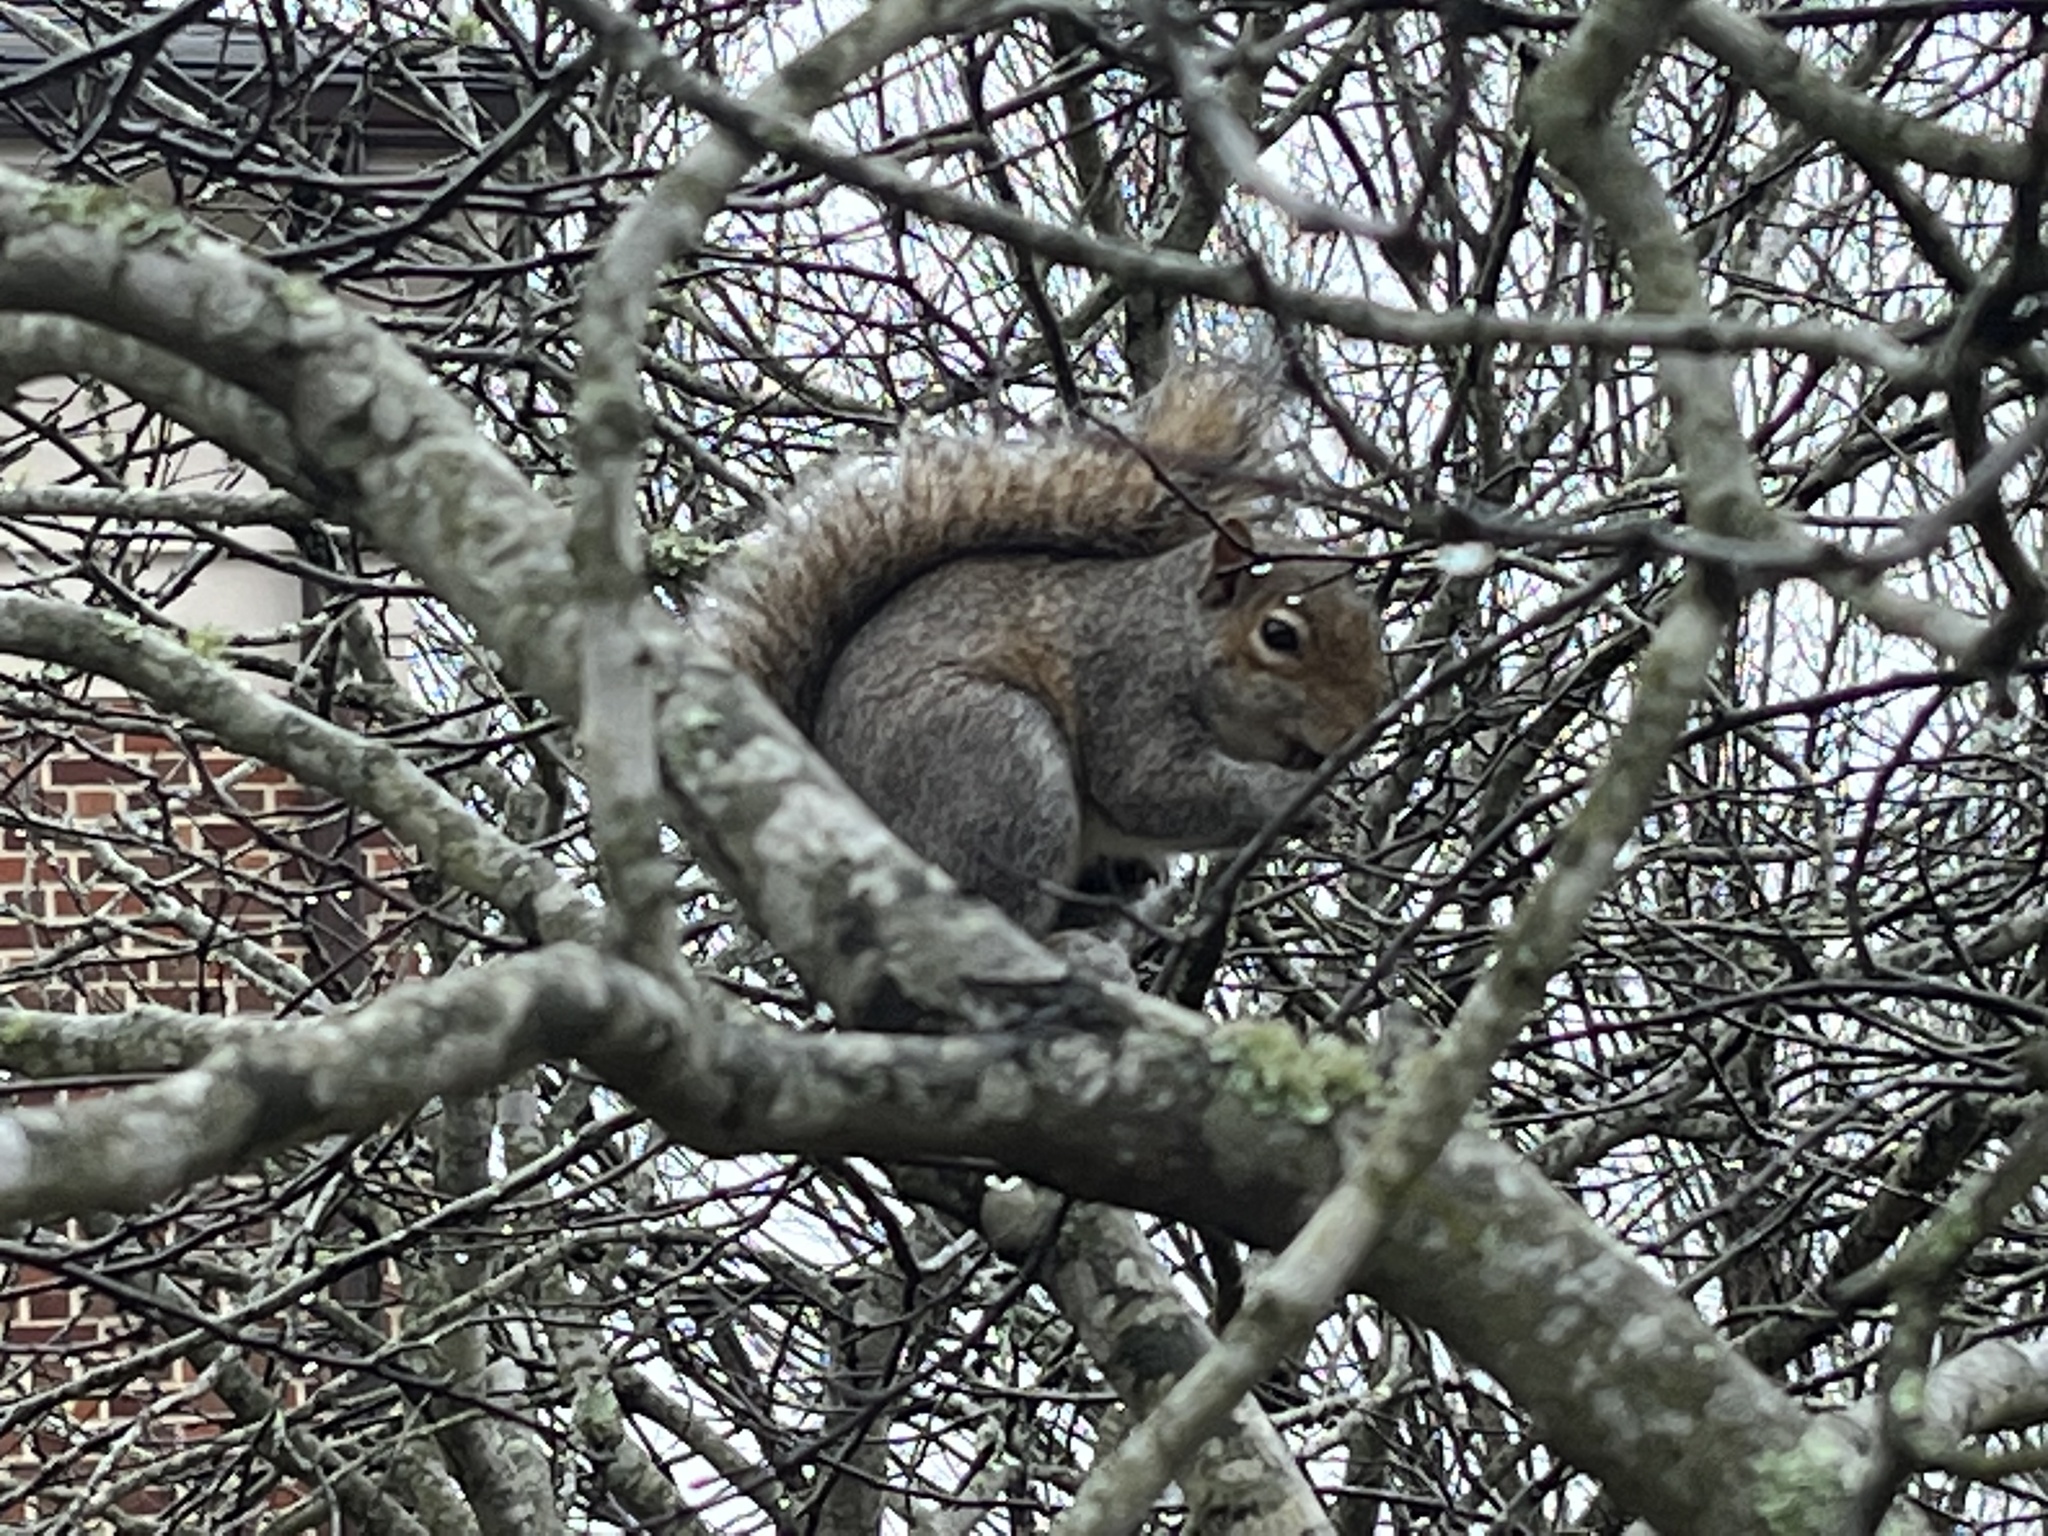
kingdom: Animalia
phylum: Chordata
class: Mammalia
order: Rodentia
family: Sciuridae
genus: Sciurus
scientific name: Sciurus carolinensis
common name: Eastern gray squirrel
